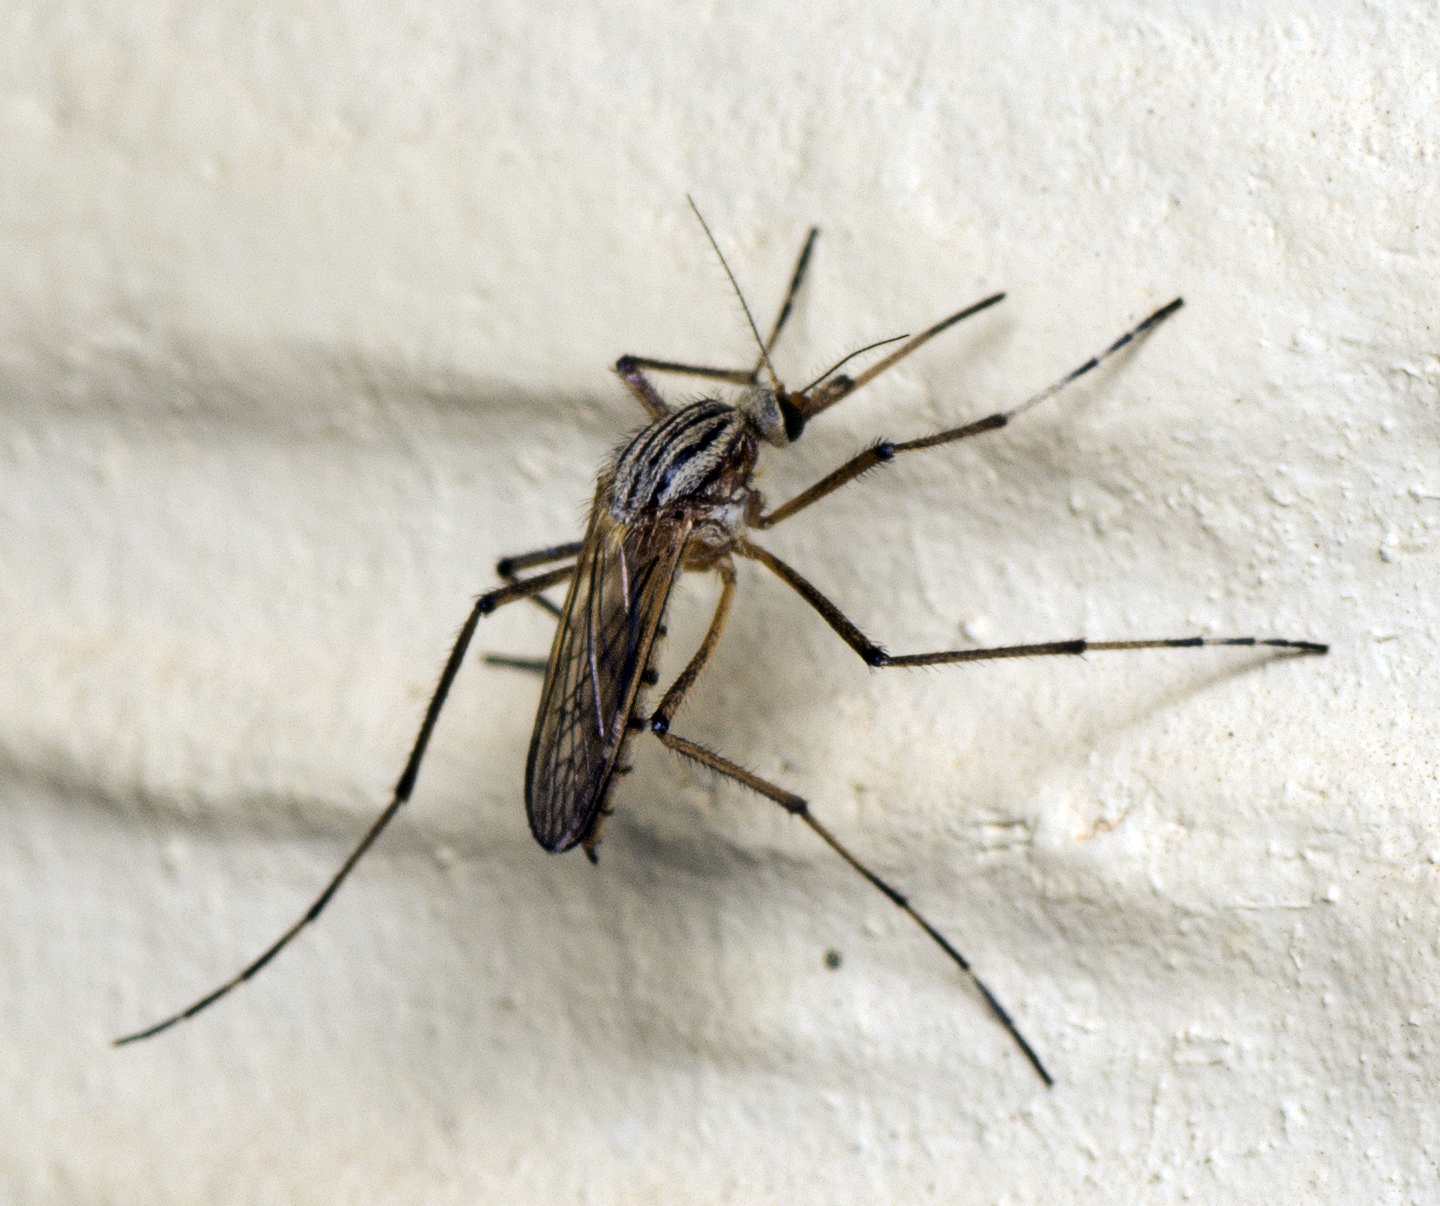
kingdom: Animalia
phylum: Arthropoda
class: Insecta
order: Diptera
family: Culicidae
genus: Aedes
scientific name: Aedes vittiger
